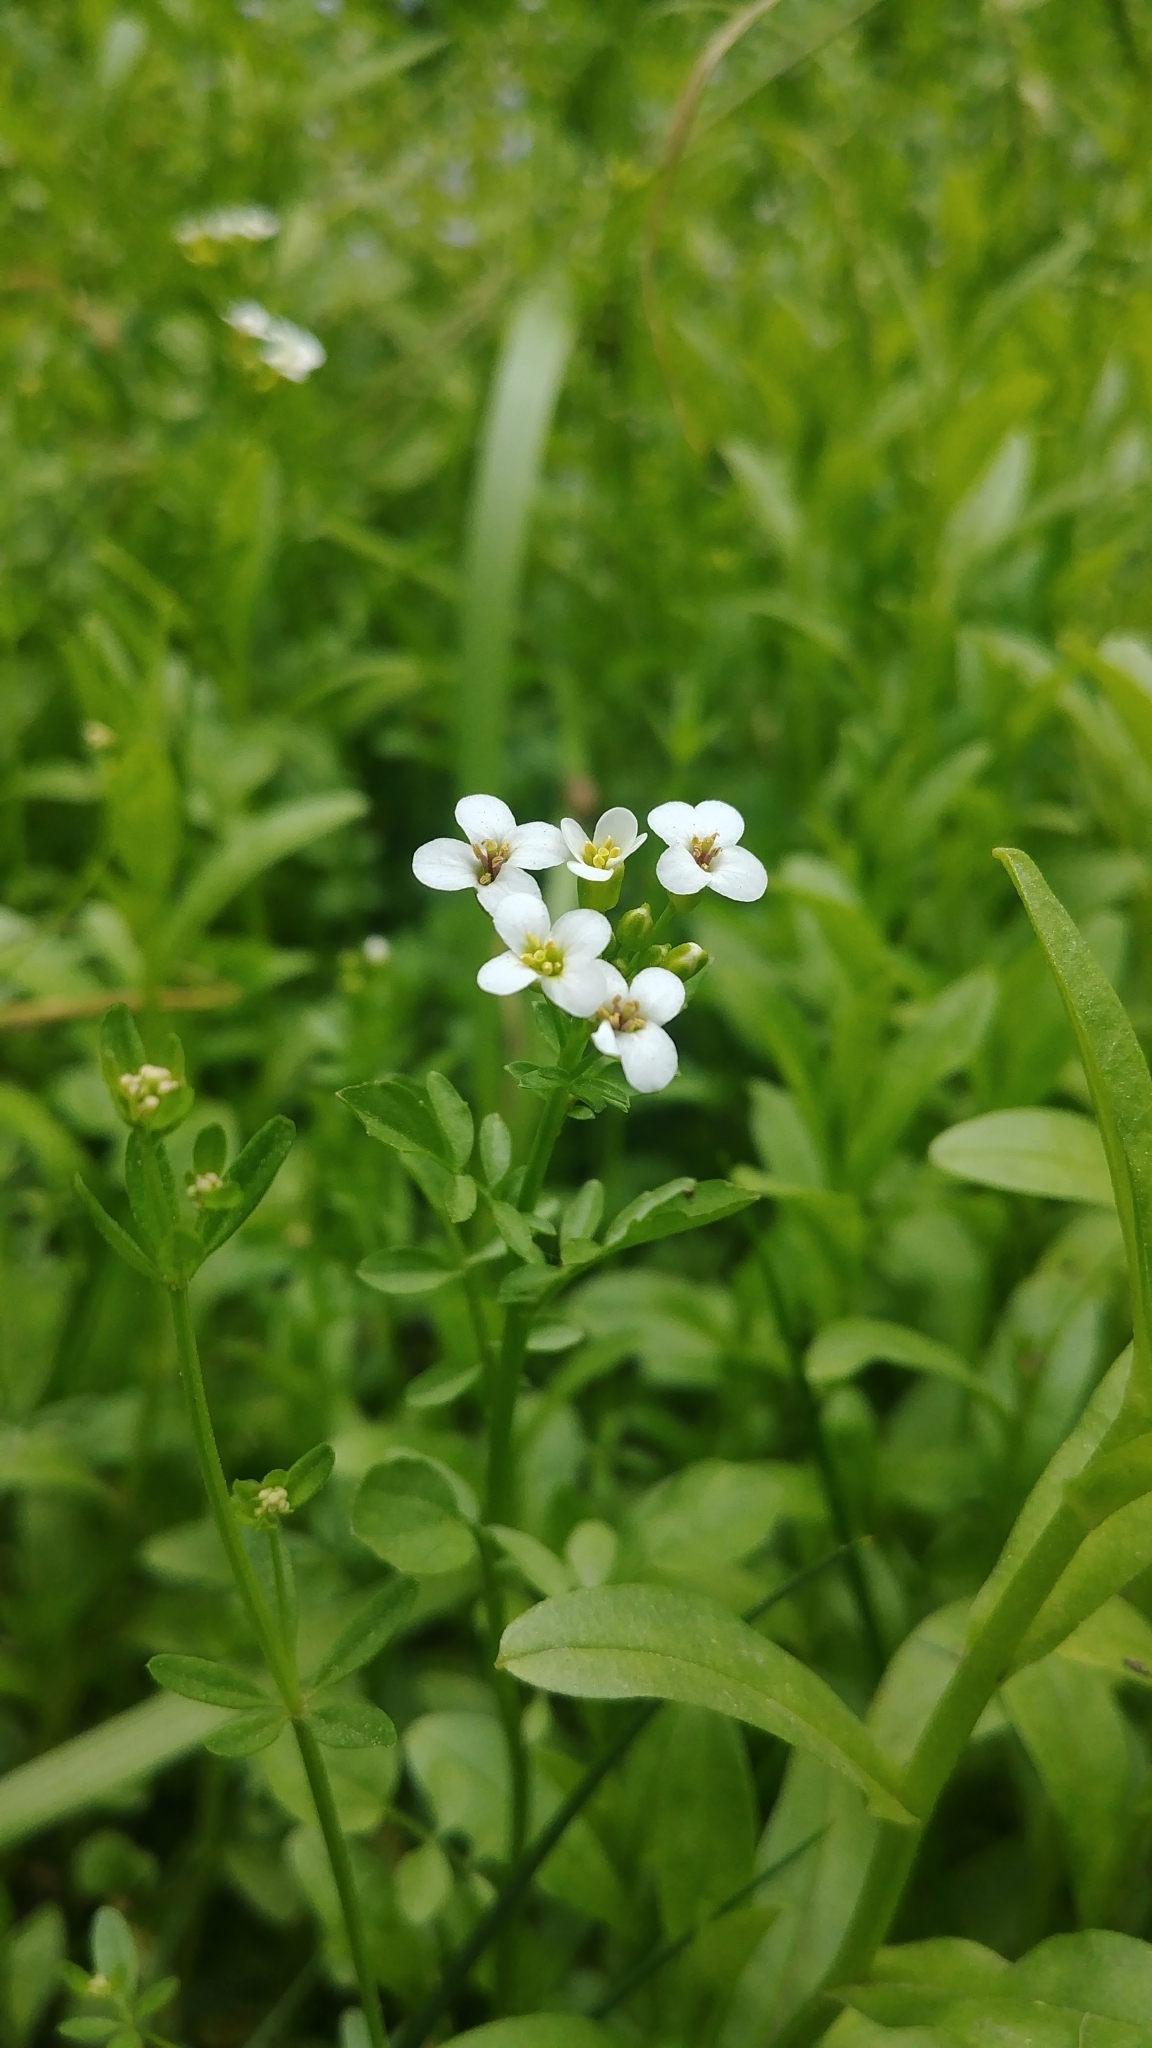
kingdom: Plantae
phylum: Tracheophyta
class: Magnoliopsida
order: Brassicales
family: Brassicaceae
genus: Nasturtium
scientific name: Nasturtium officinale
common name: Watercress
